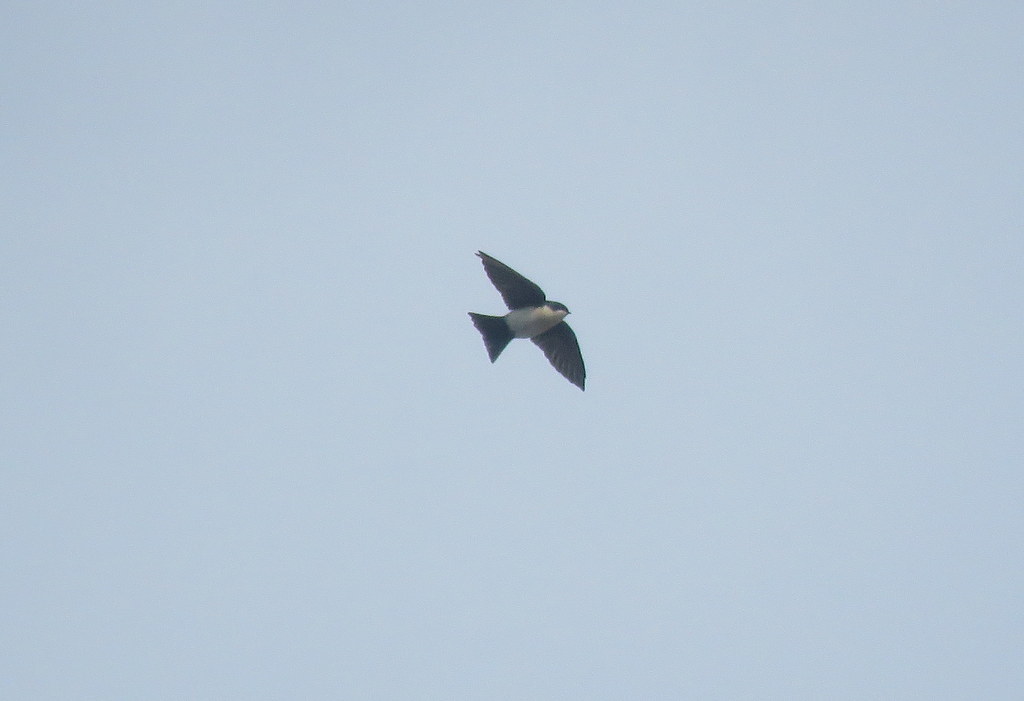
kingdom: Animalia
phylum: Chordata
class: Aves
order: Passeriformes
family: Hirundinidae
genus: Notiochelidon
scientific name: Notiochelidon cyanoleuca
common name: Blue-and-white swallow
